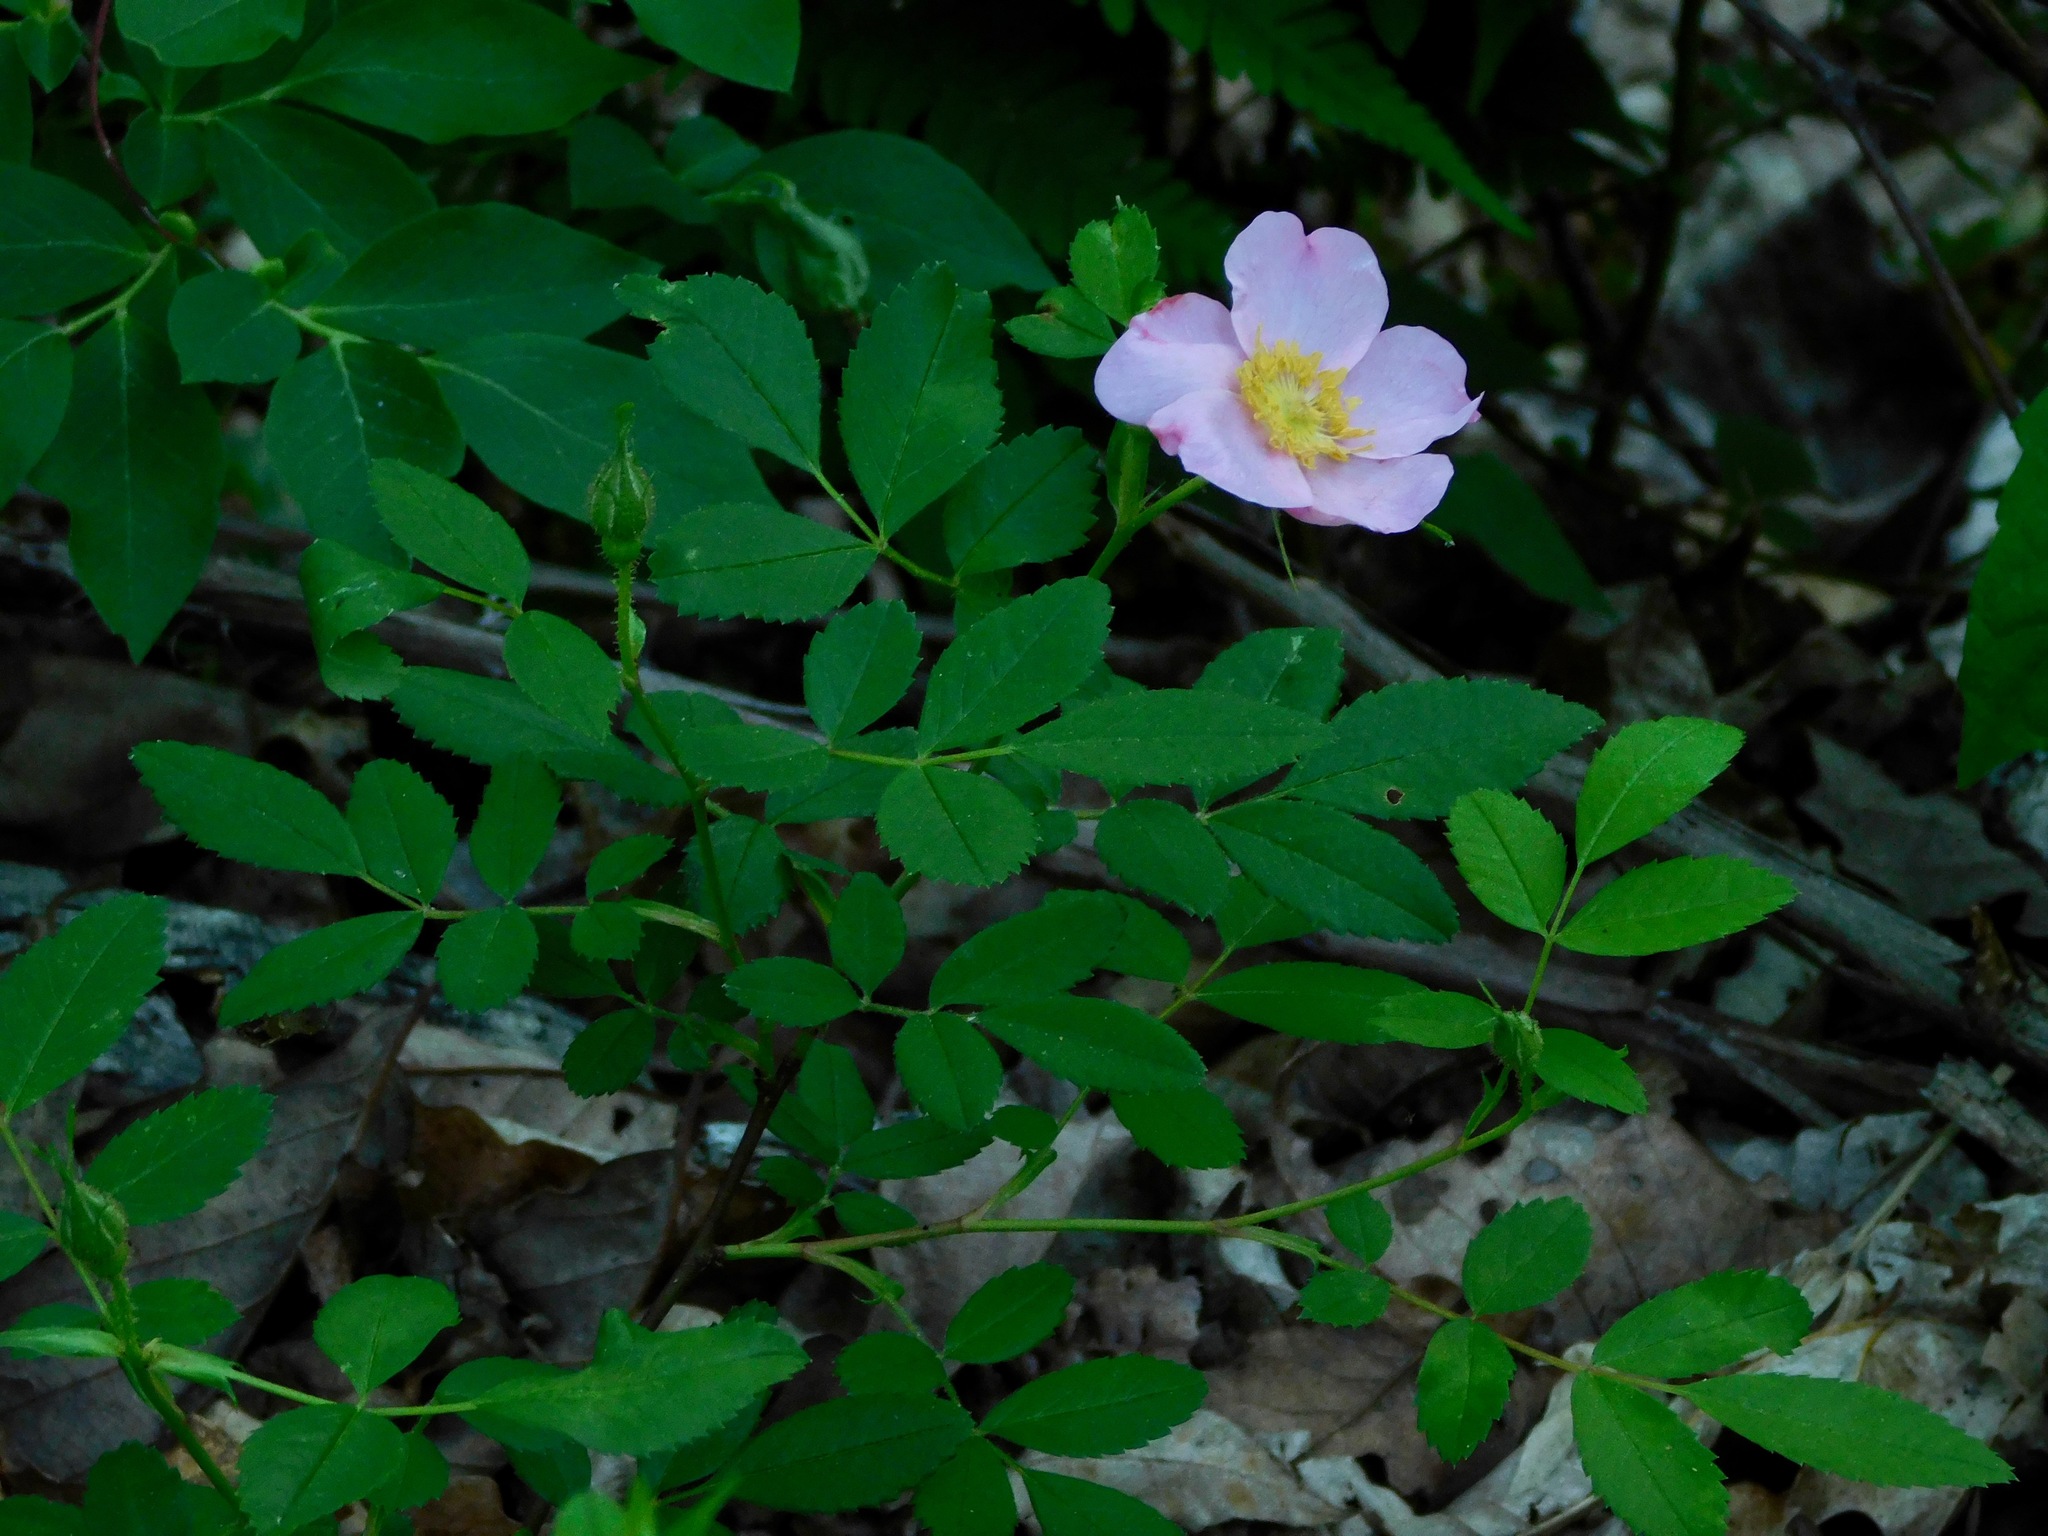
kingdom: Plantae
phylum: Tracheophyta
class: Magnoliopsida
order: Rosales
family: Rosaceae
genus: Rosa
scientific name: Rosa carolina
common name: Pasture rose
